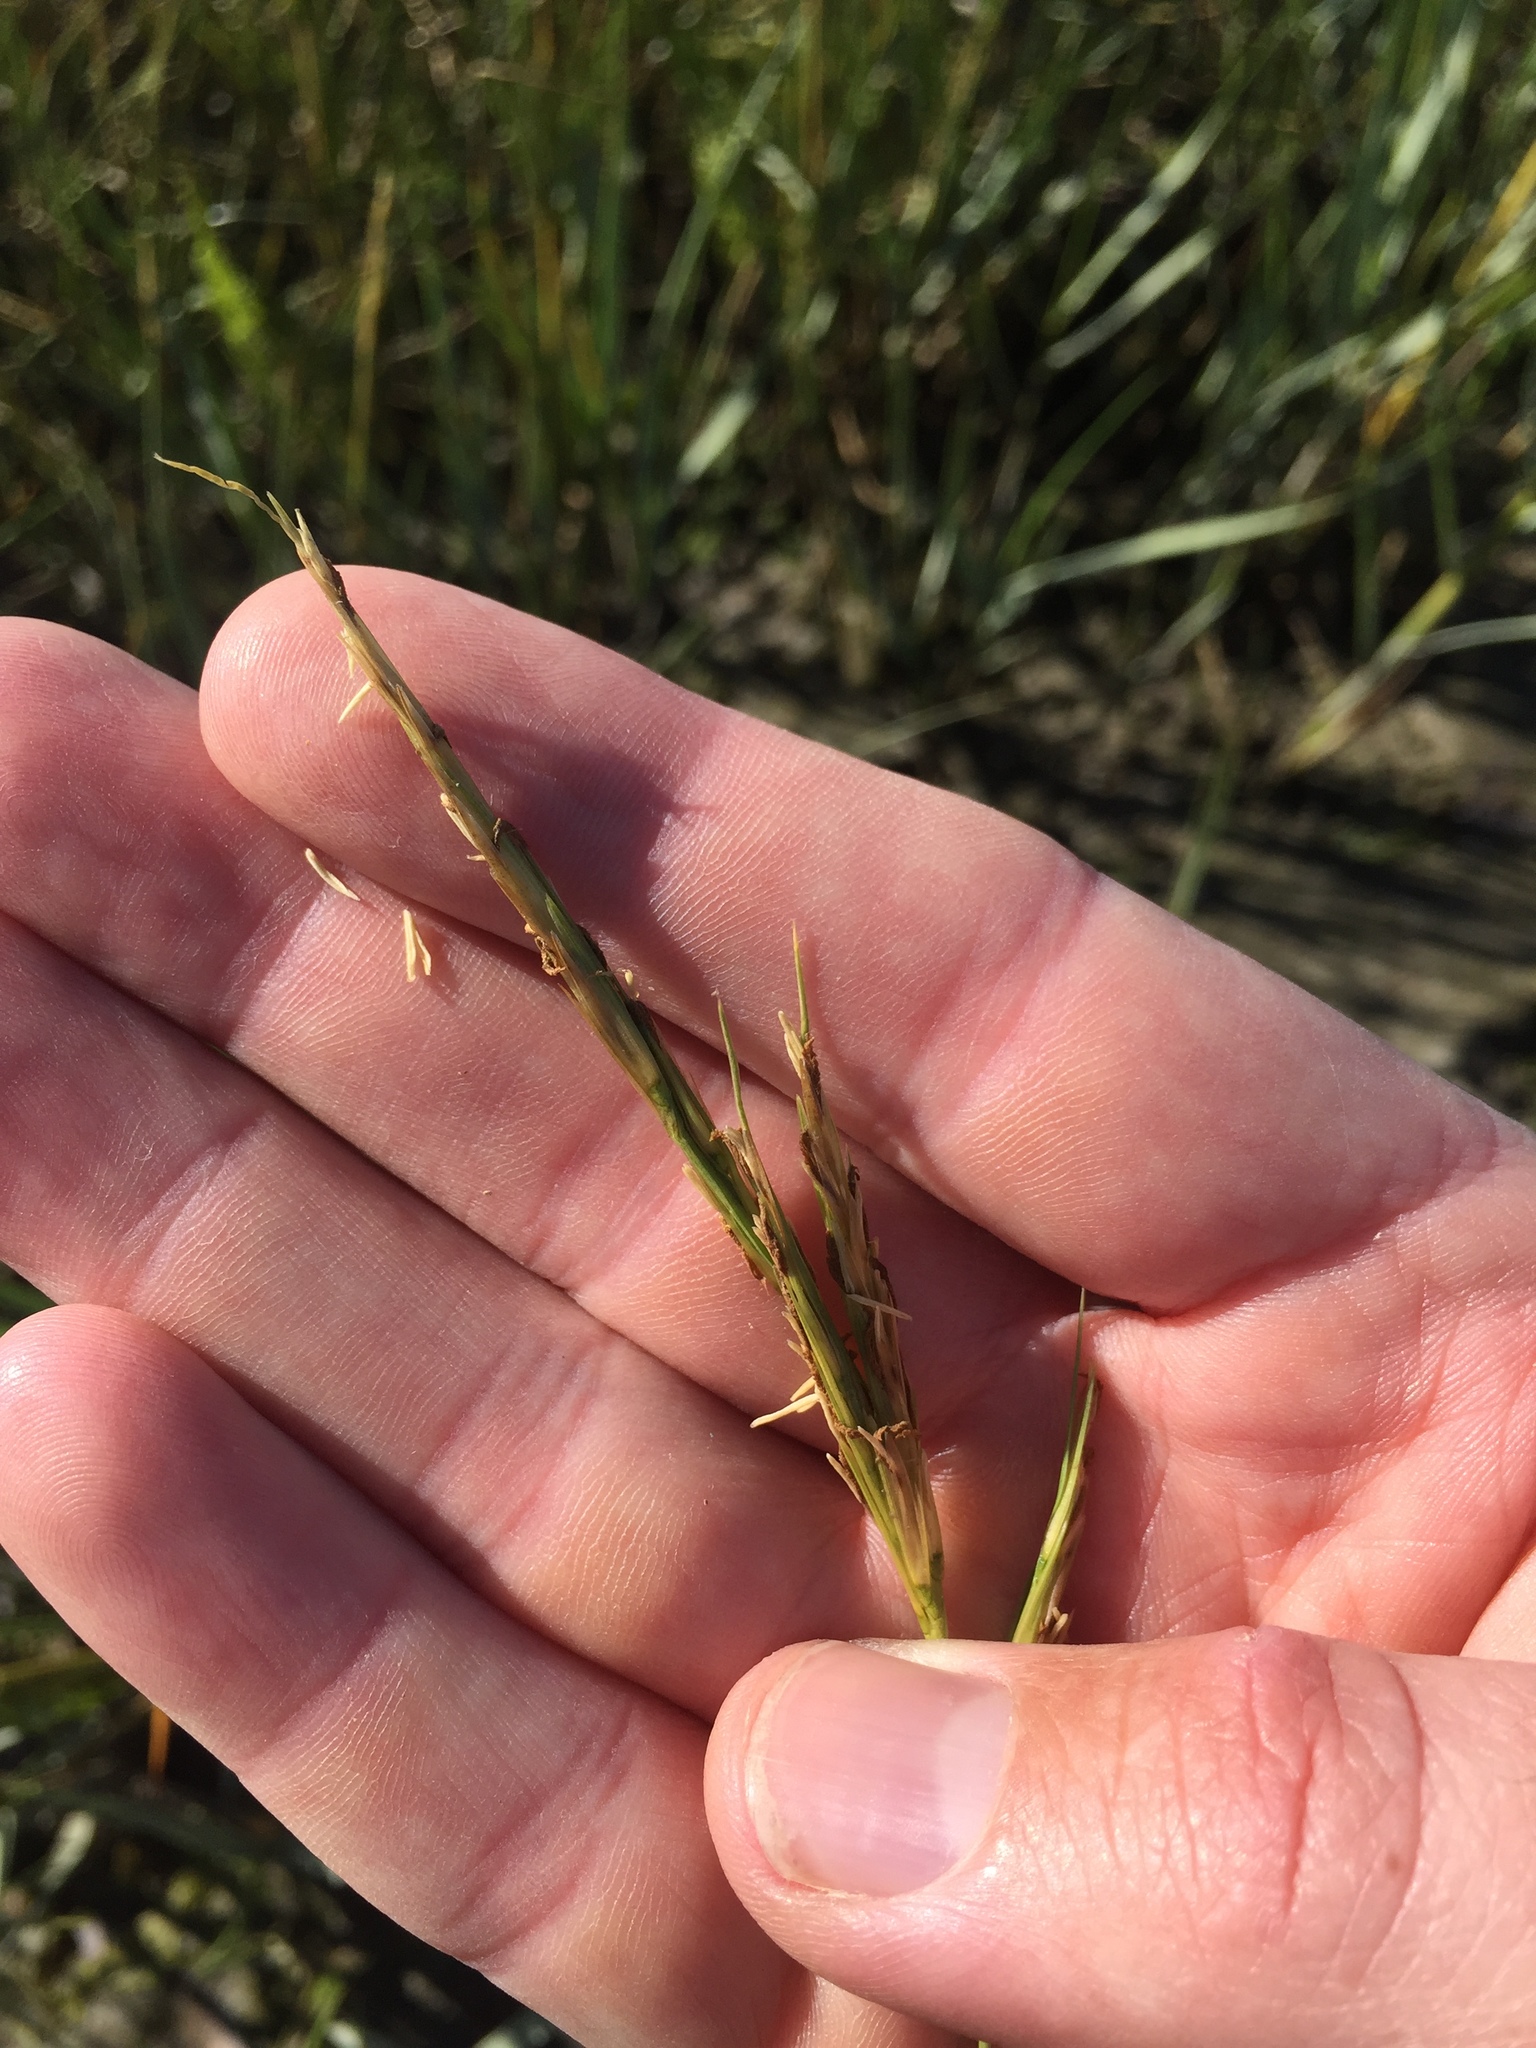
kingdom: Plantae
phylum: Tracheophyta
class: Liliopsida
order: Poales
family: Poaceae
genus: Sporobolus
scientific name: Sporobolus foliosus
